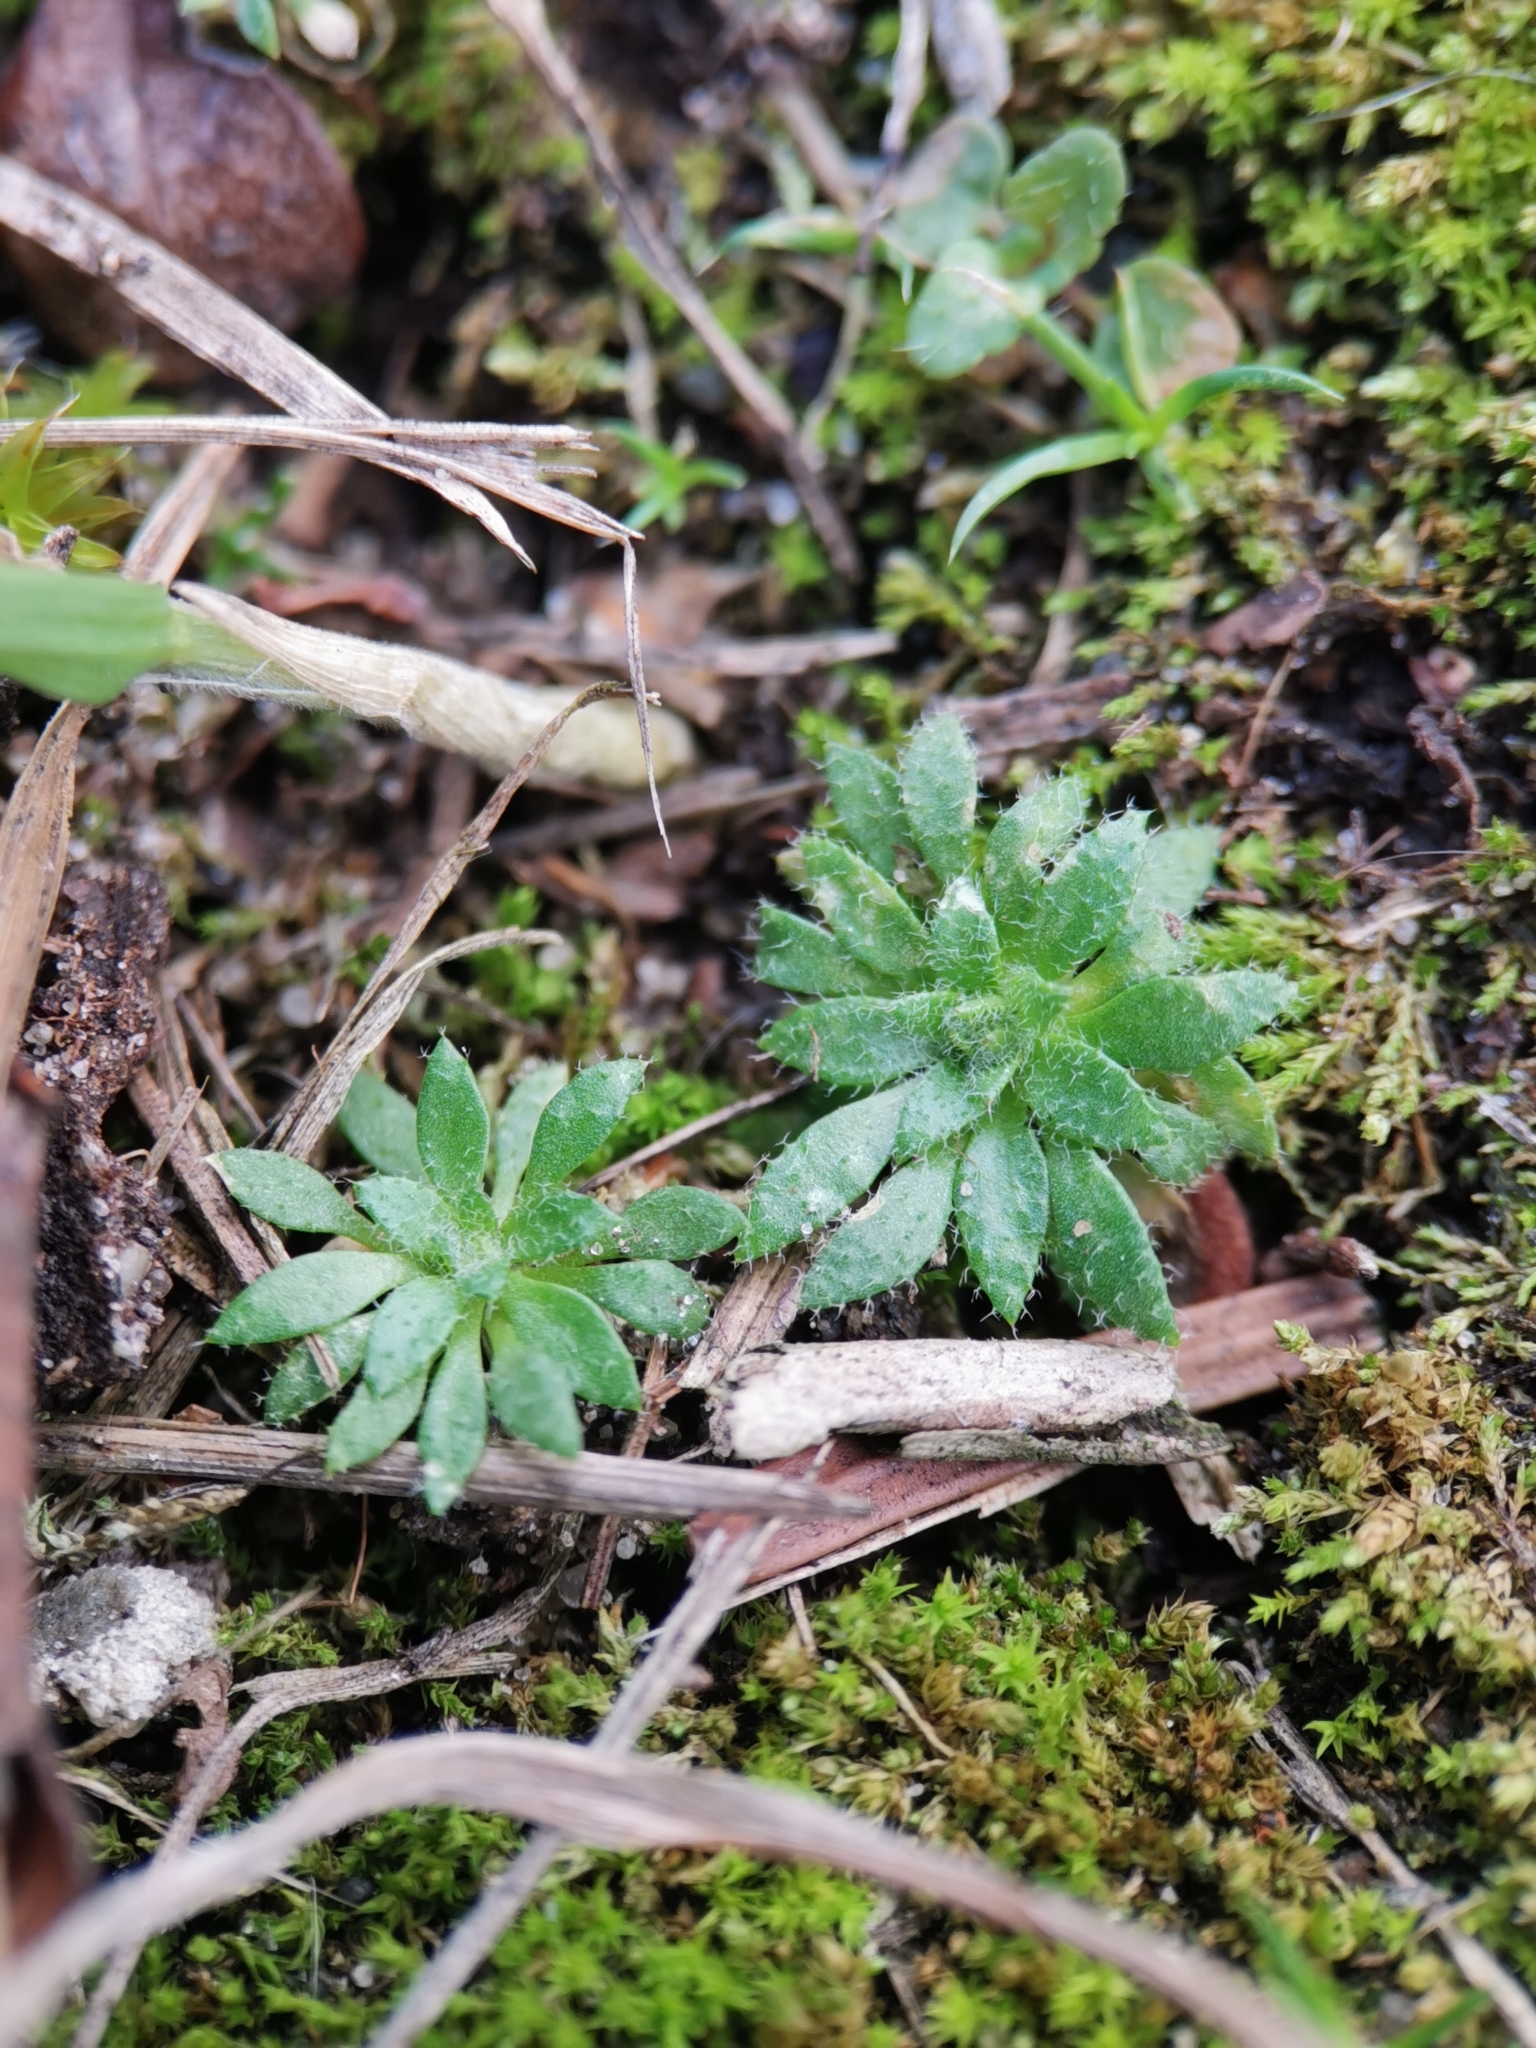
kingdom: Plantae
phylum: Tracheophyta
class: Magnoliopsida
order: Brassicales
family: Brassicaceae
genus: Draba
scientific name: Draba verna
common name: Spring draba
